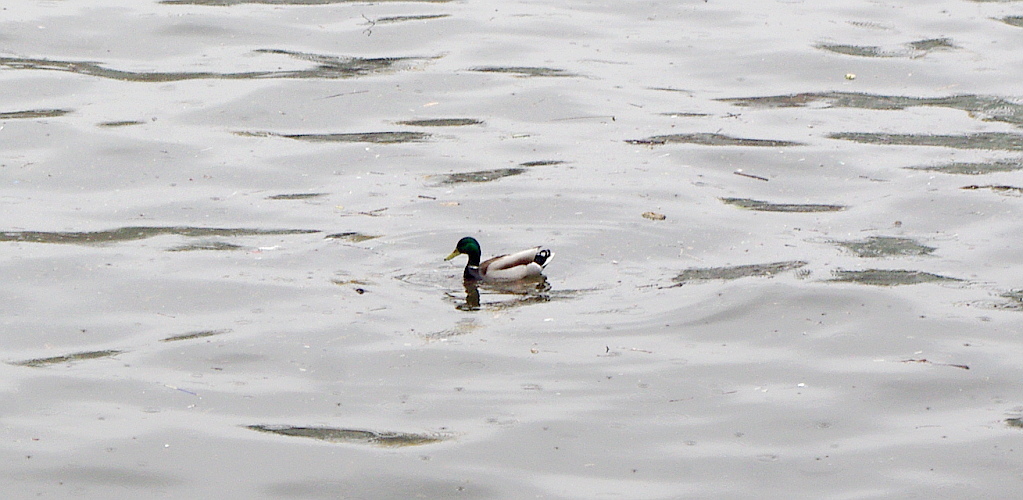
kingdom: Animalia
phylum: Chordata
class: Aves
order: Anseriformes
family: Anatidae
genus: Anas
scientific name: Anas platyrhynchos
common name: Mallard
